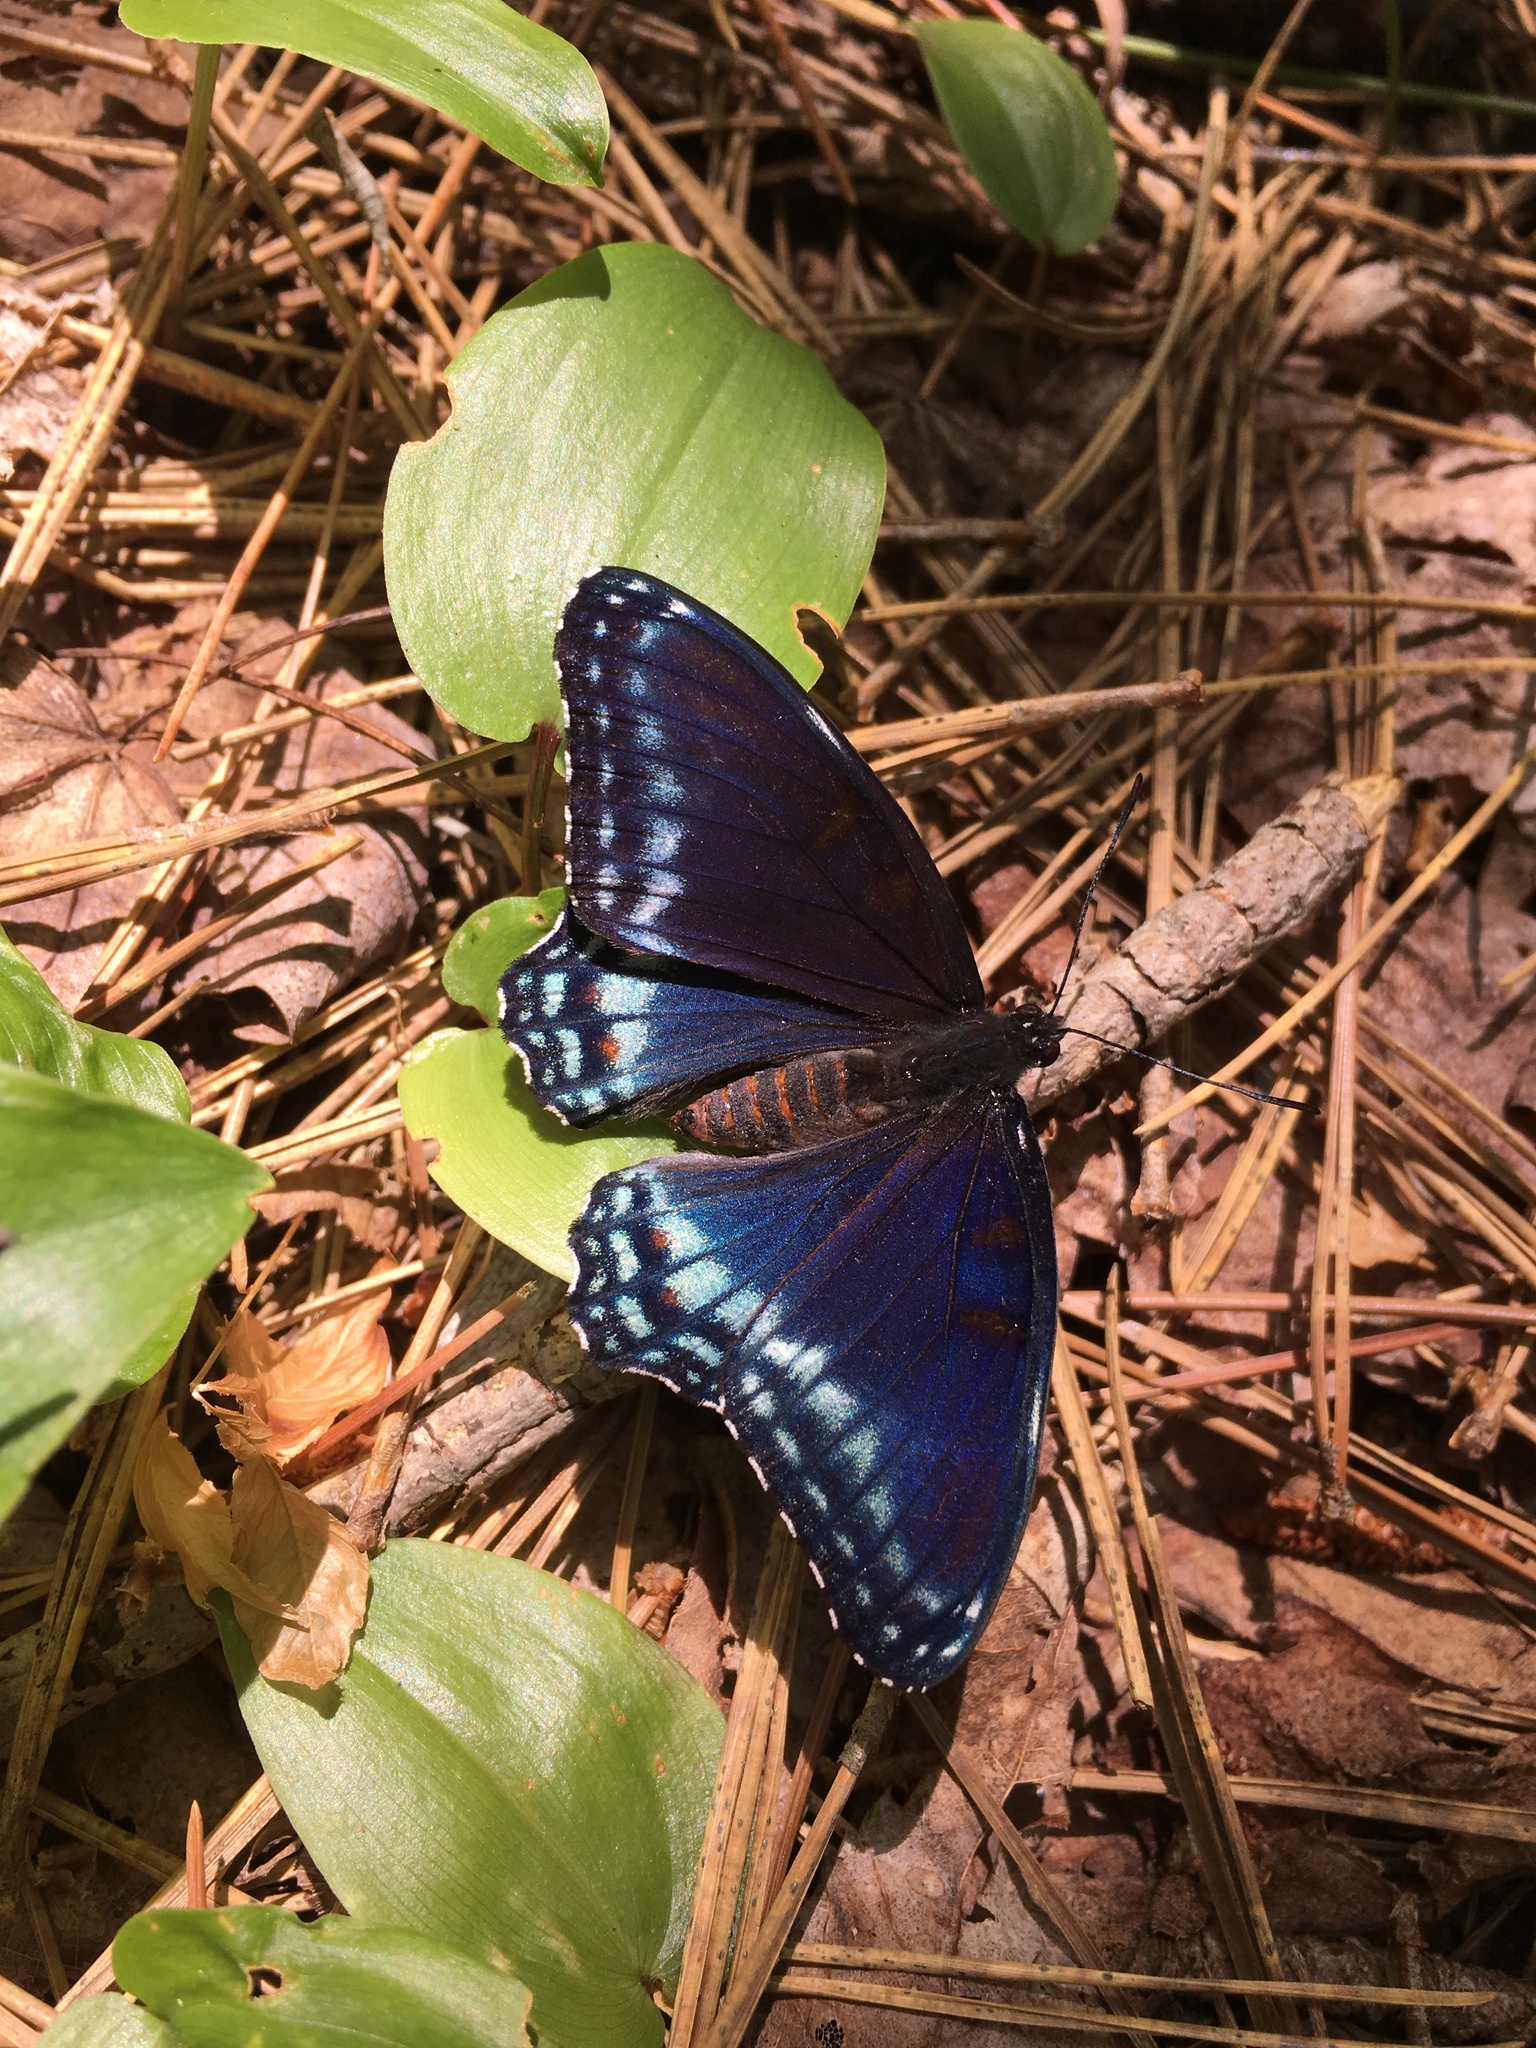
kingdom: Animalia
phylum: Arthropoda
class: Insecta
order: Lepidoptera
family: Nymphalidae
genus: Limenitis
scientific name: Limenitis arthemis
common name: Red-spotted admiral
